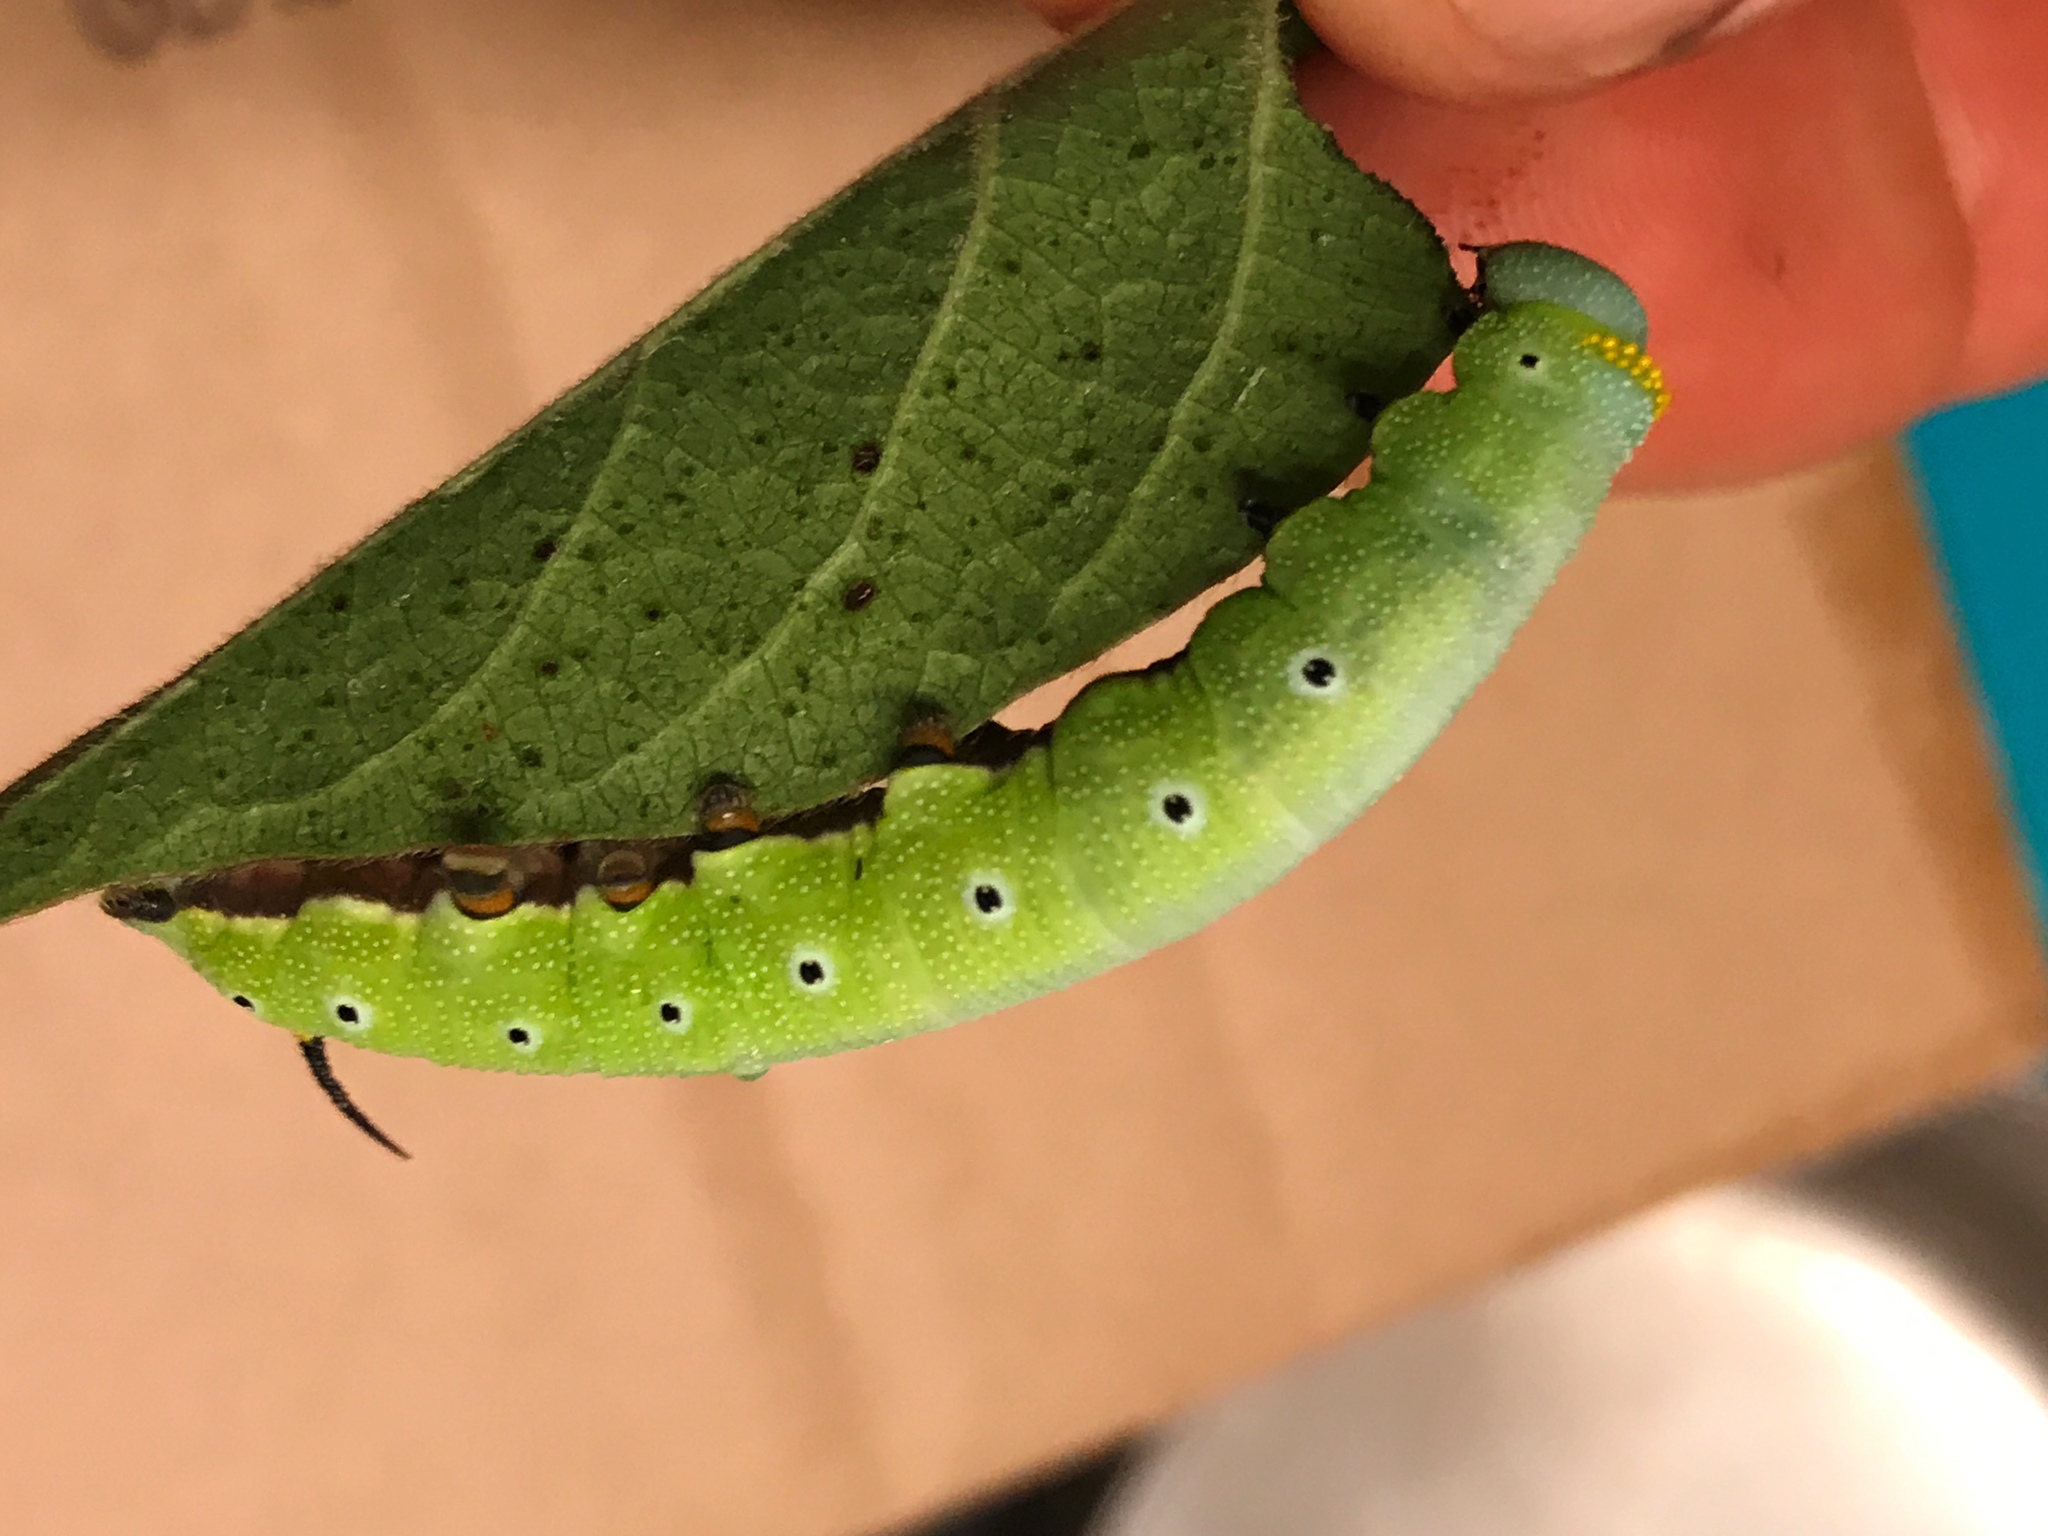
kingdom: Animalia
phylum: Arthropoda
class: Insecta
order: Lepidoptera
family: Sphingidae
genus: Hemaris
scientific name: Hemaris diffinis
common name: Bumblebee moth
